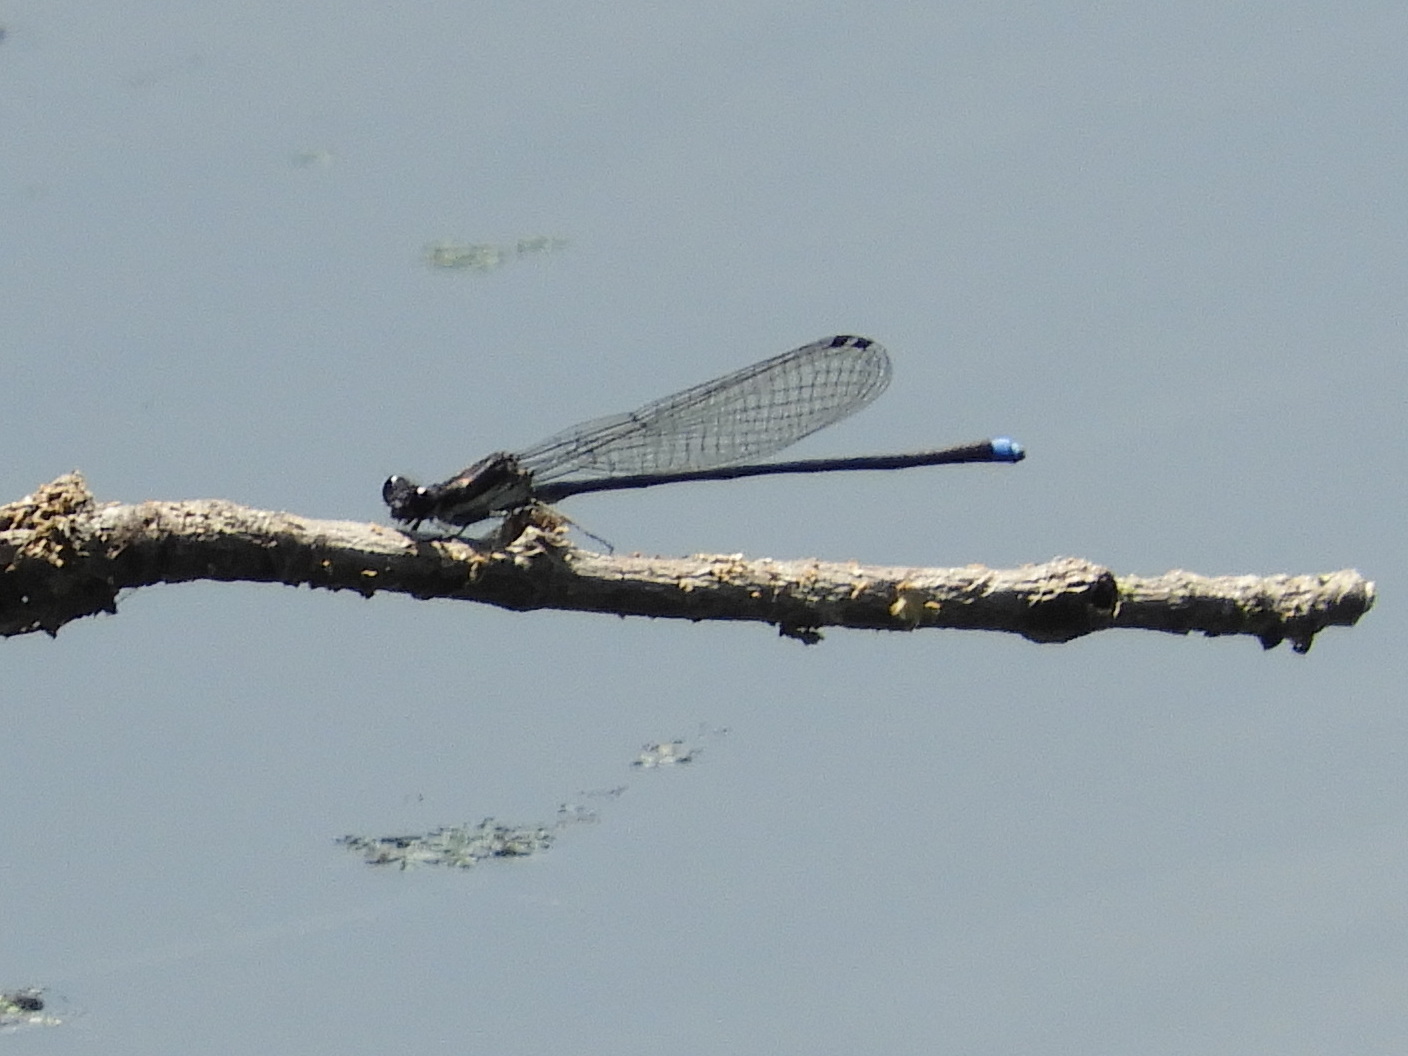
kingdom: Animalia
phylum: Arthropoda
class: Insecta
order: Odonata
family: Coenagrionidae
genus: Argia
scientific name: Argia tibialis
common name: Blue-tipped dancer
